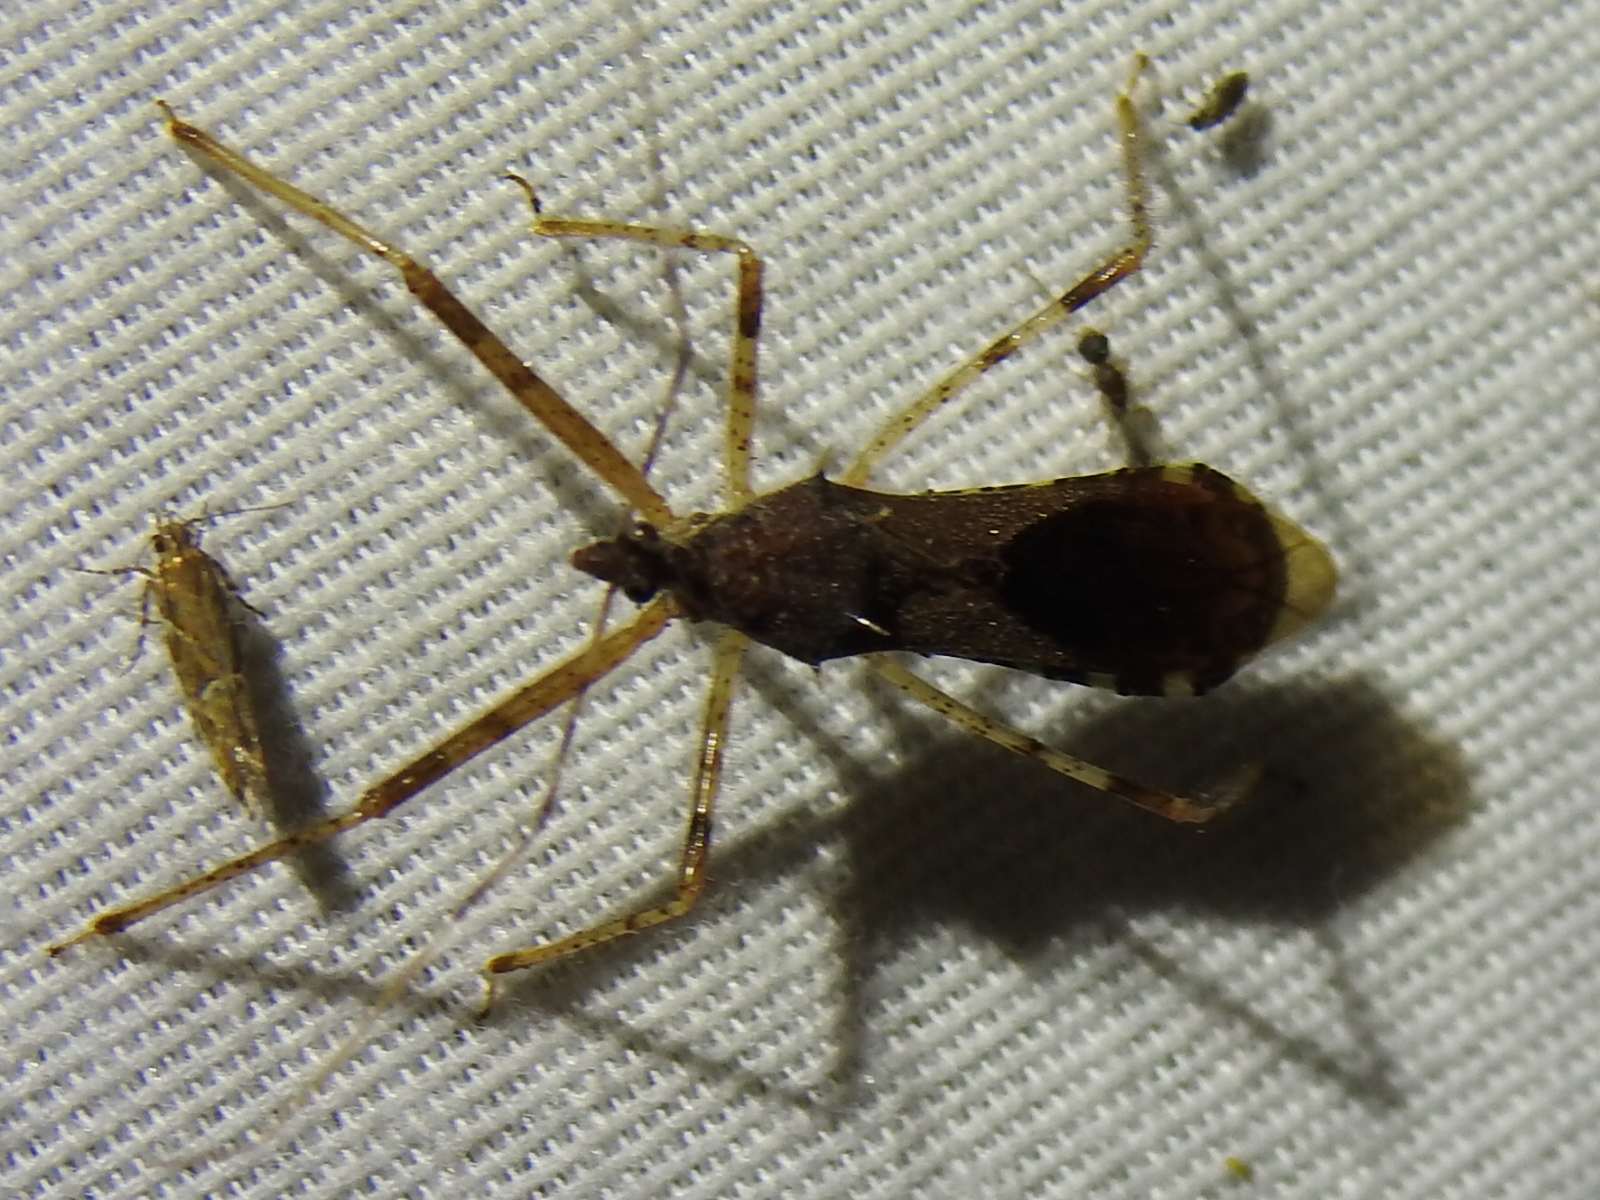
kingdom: Animalia
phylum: Arthropoda
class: Insecta
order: Hemiptera
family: Reduviidae
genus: Rocconota
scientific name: Rocconota annulicornis
